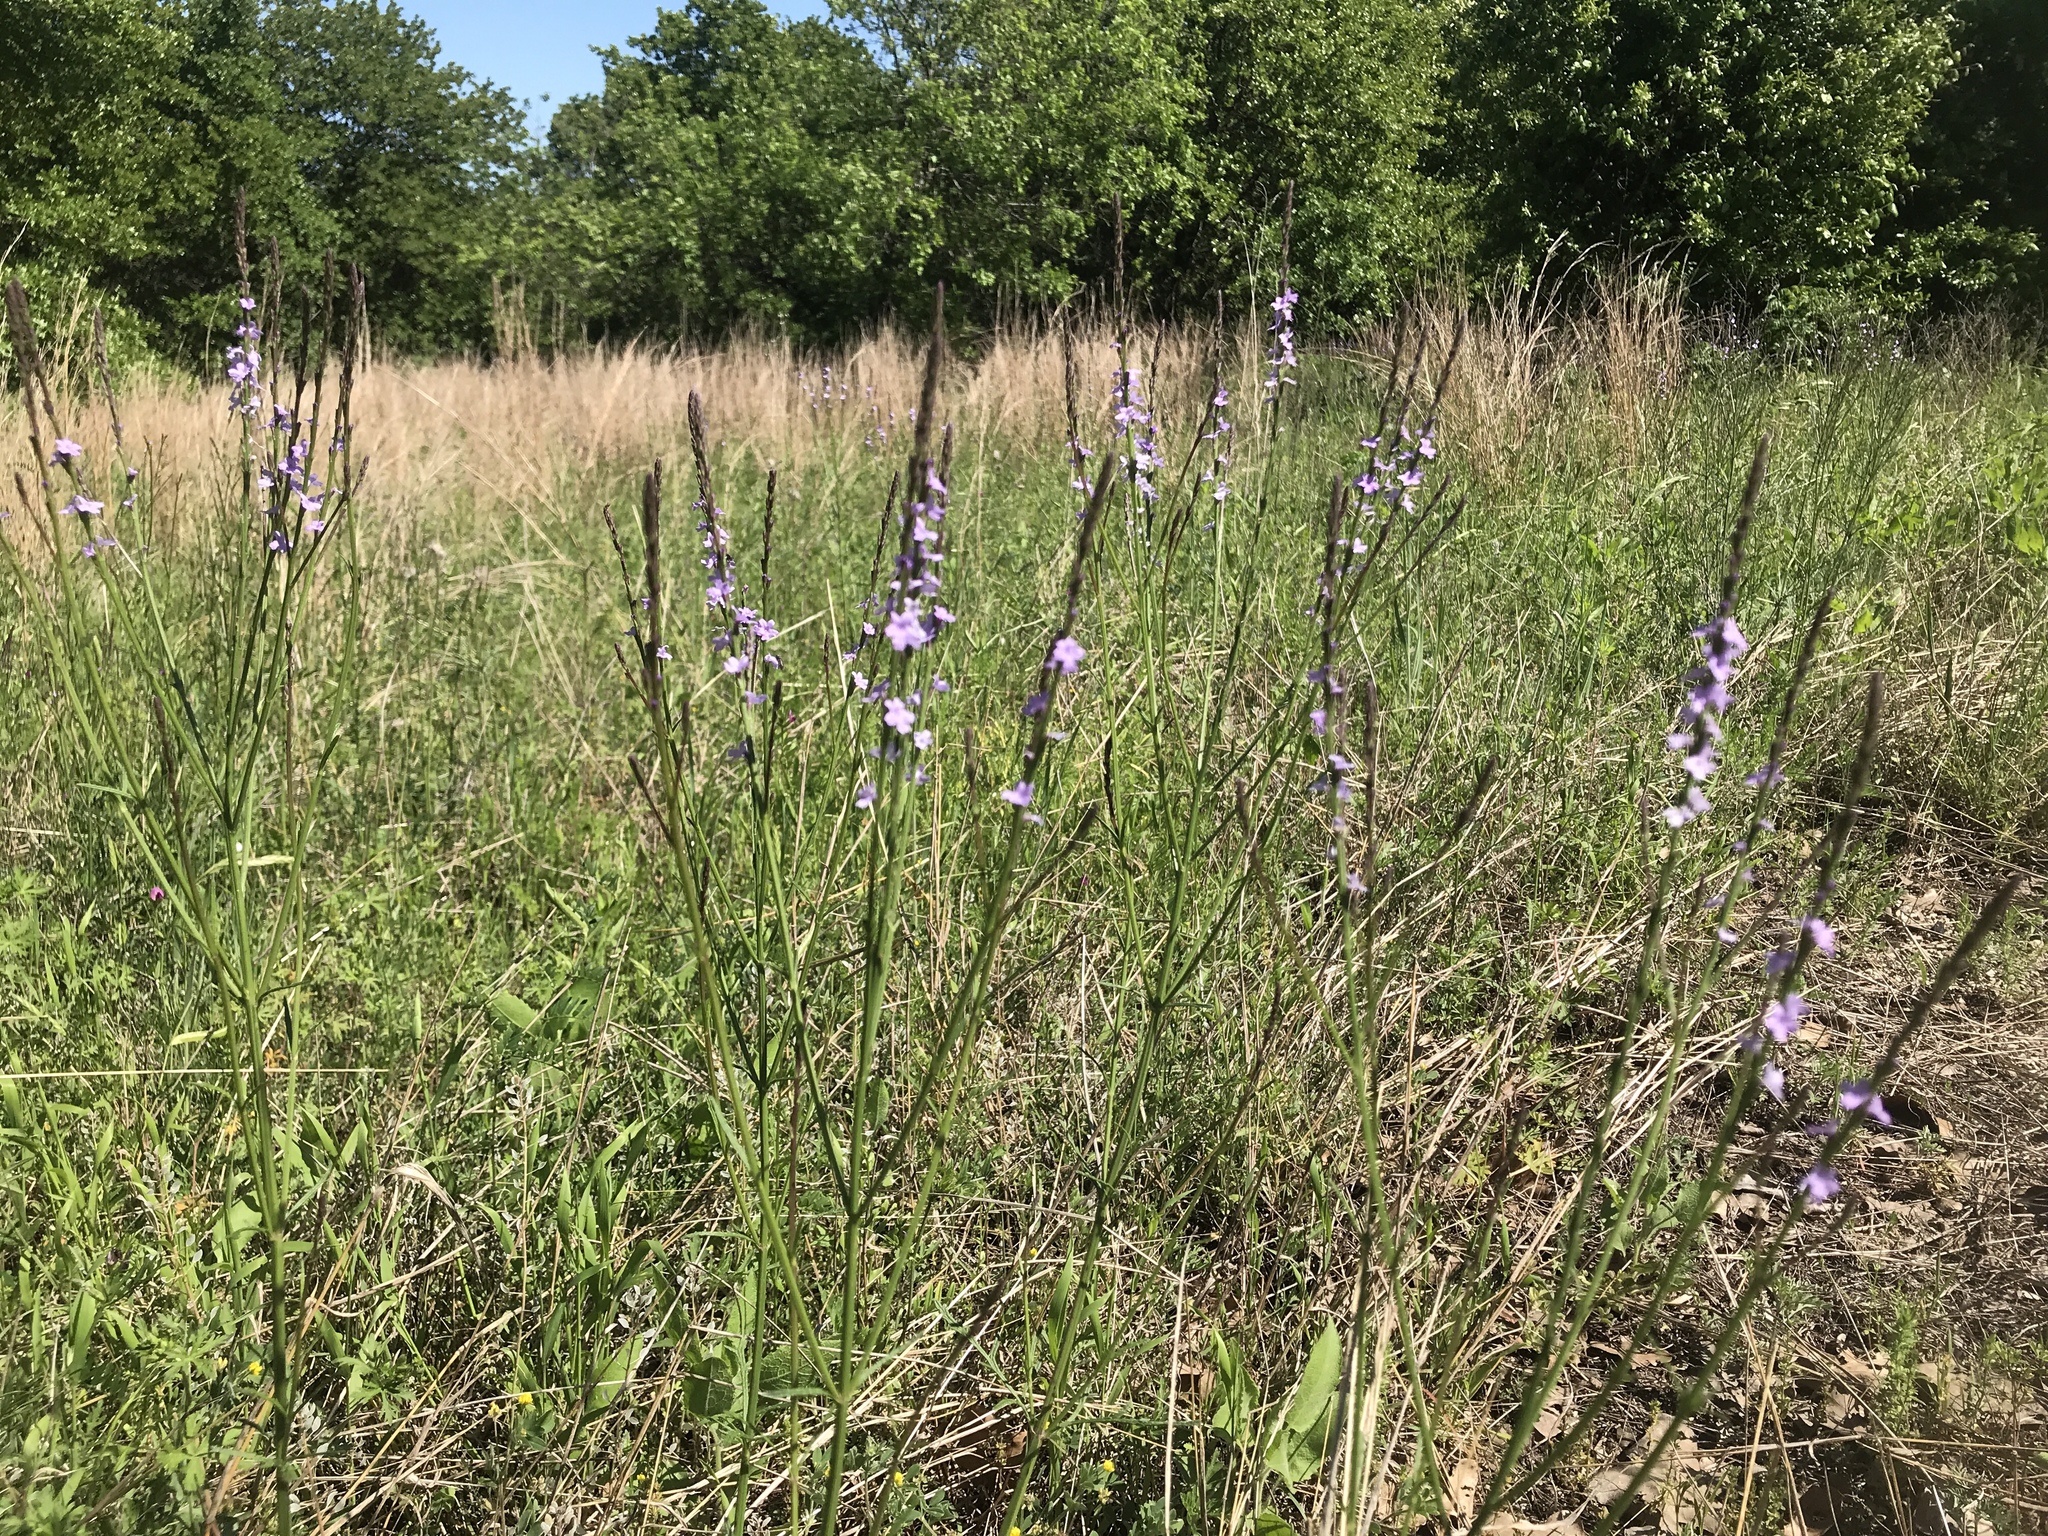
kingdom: Plantae
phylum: Tracheophyta
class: Magnoliopsida
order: Lamiales
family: Verbenaceae
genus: Verbena
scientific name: Verbena halei
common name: Texas vervain
